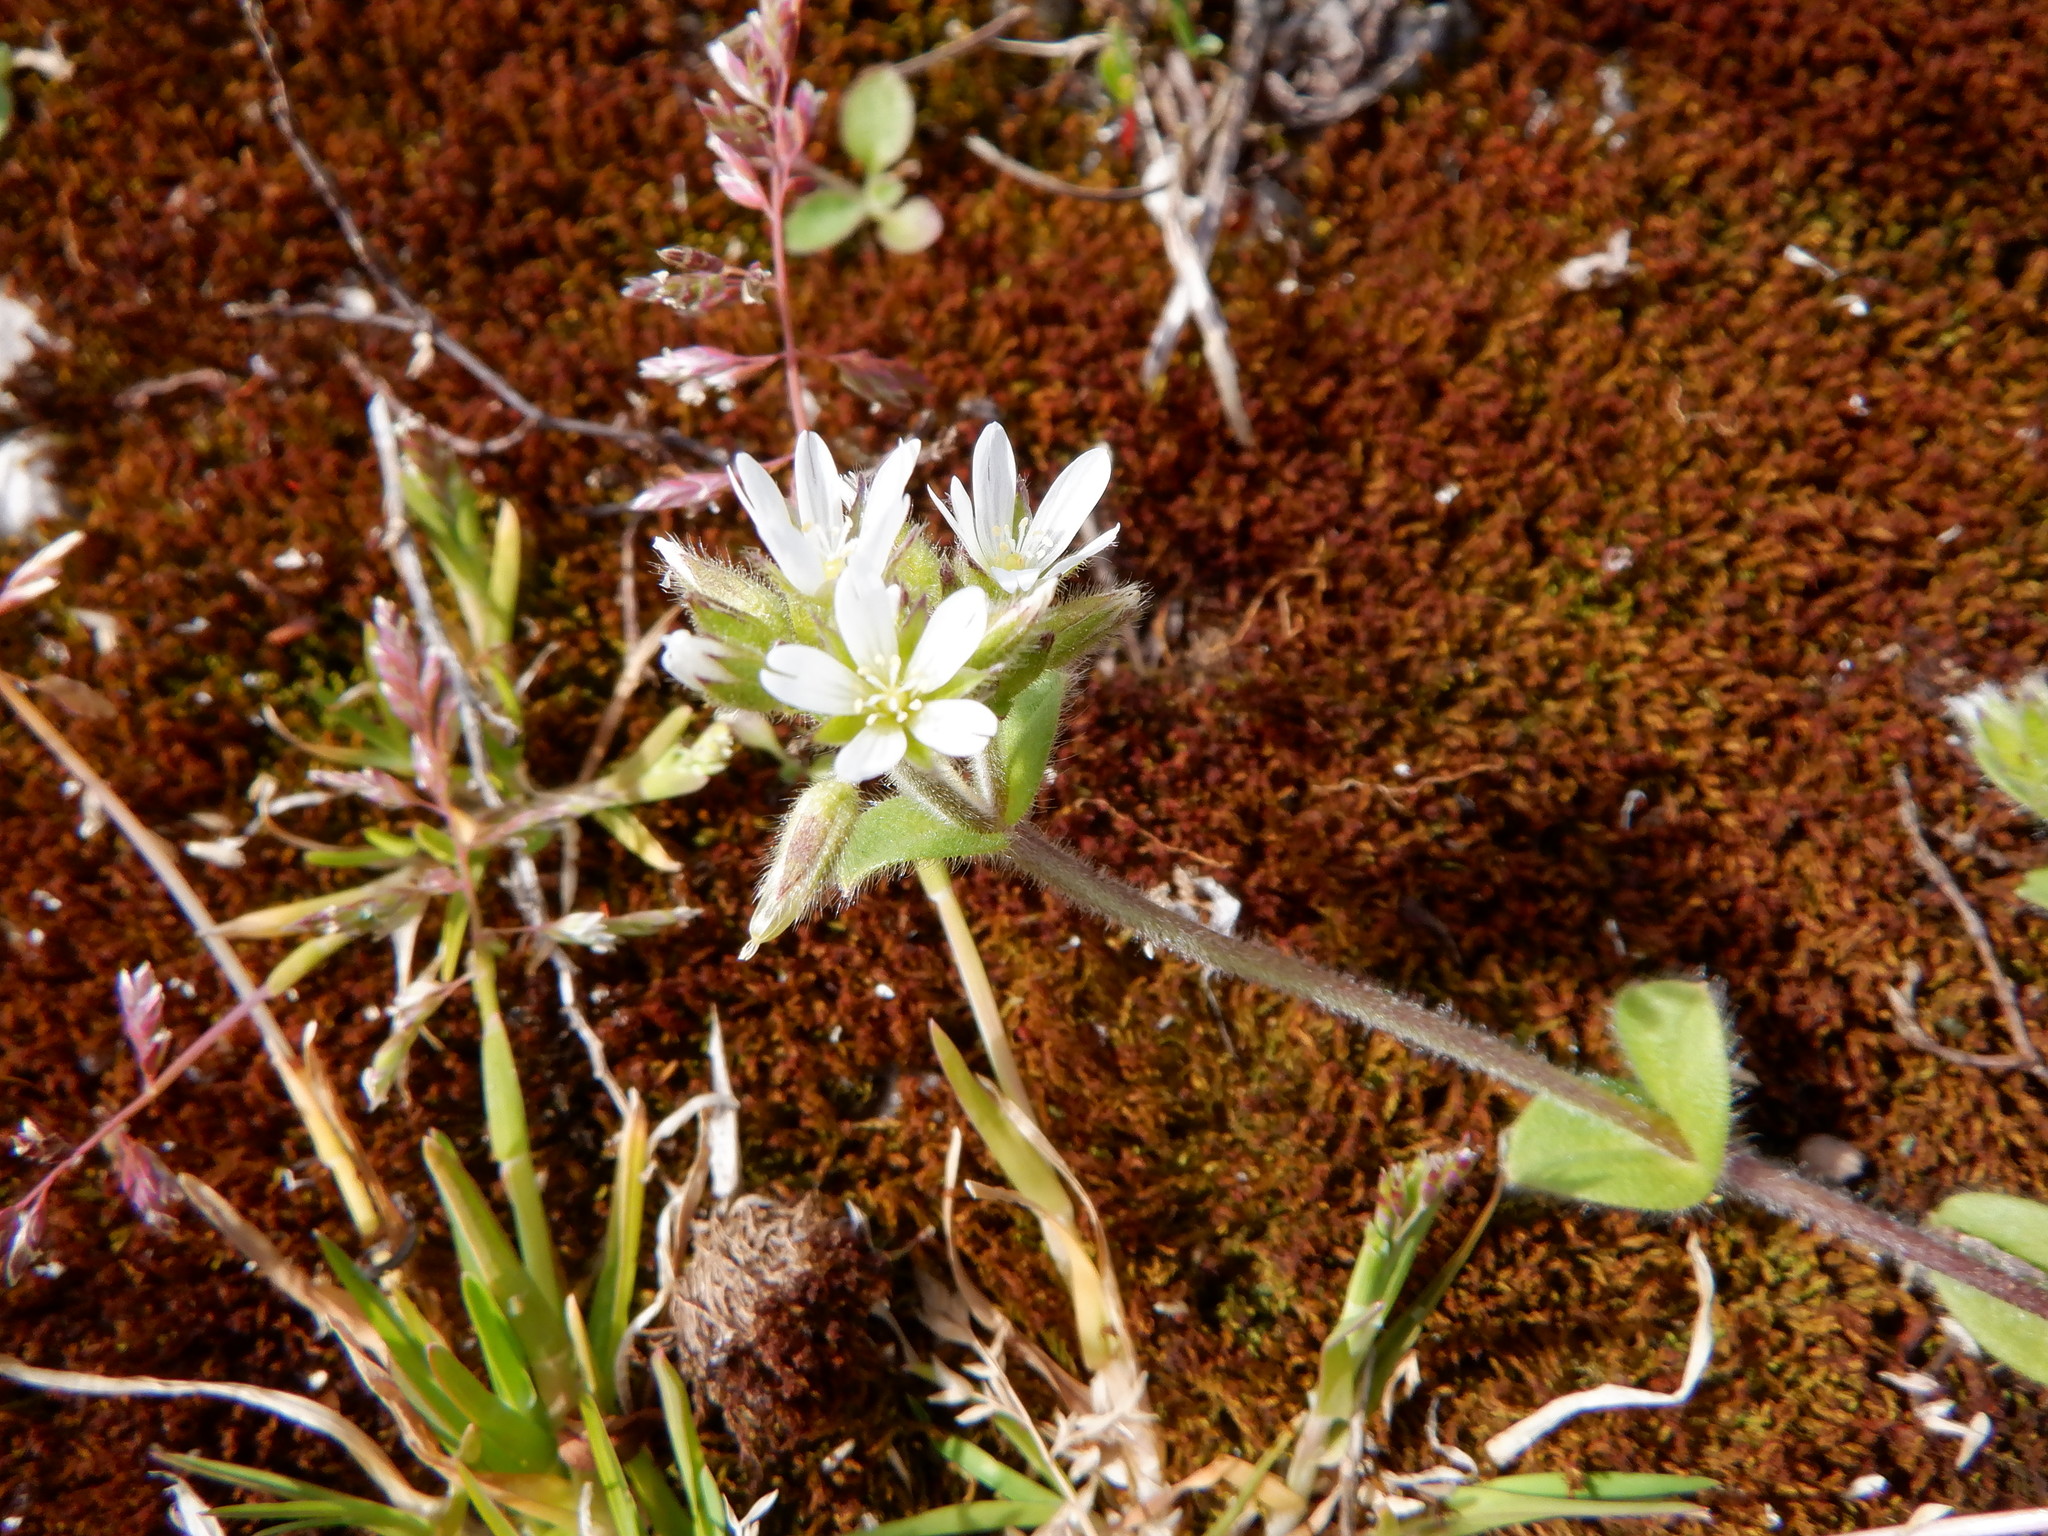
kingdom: Plantae
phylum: Tracheophyta
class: Magnoliopsida
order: Caryophyllales
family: Caryophyllaceae
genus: Cerastium
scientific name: Cerastium glomeratum
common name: Sticky chickweed
